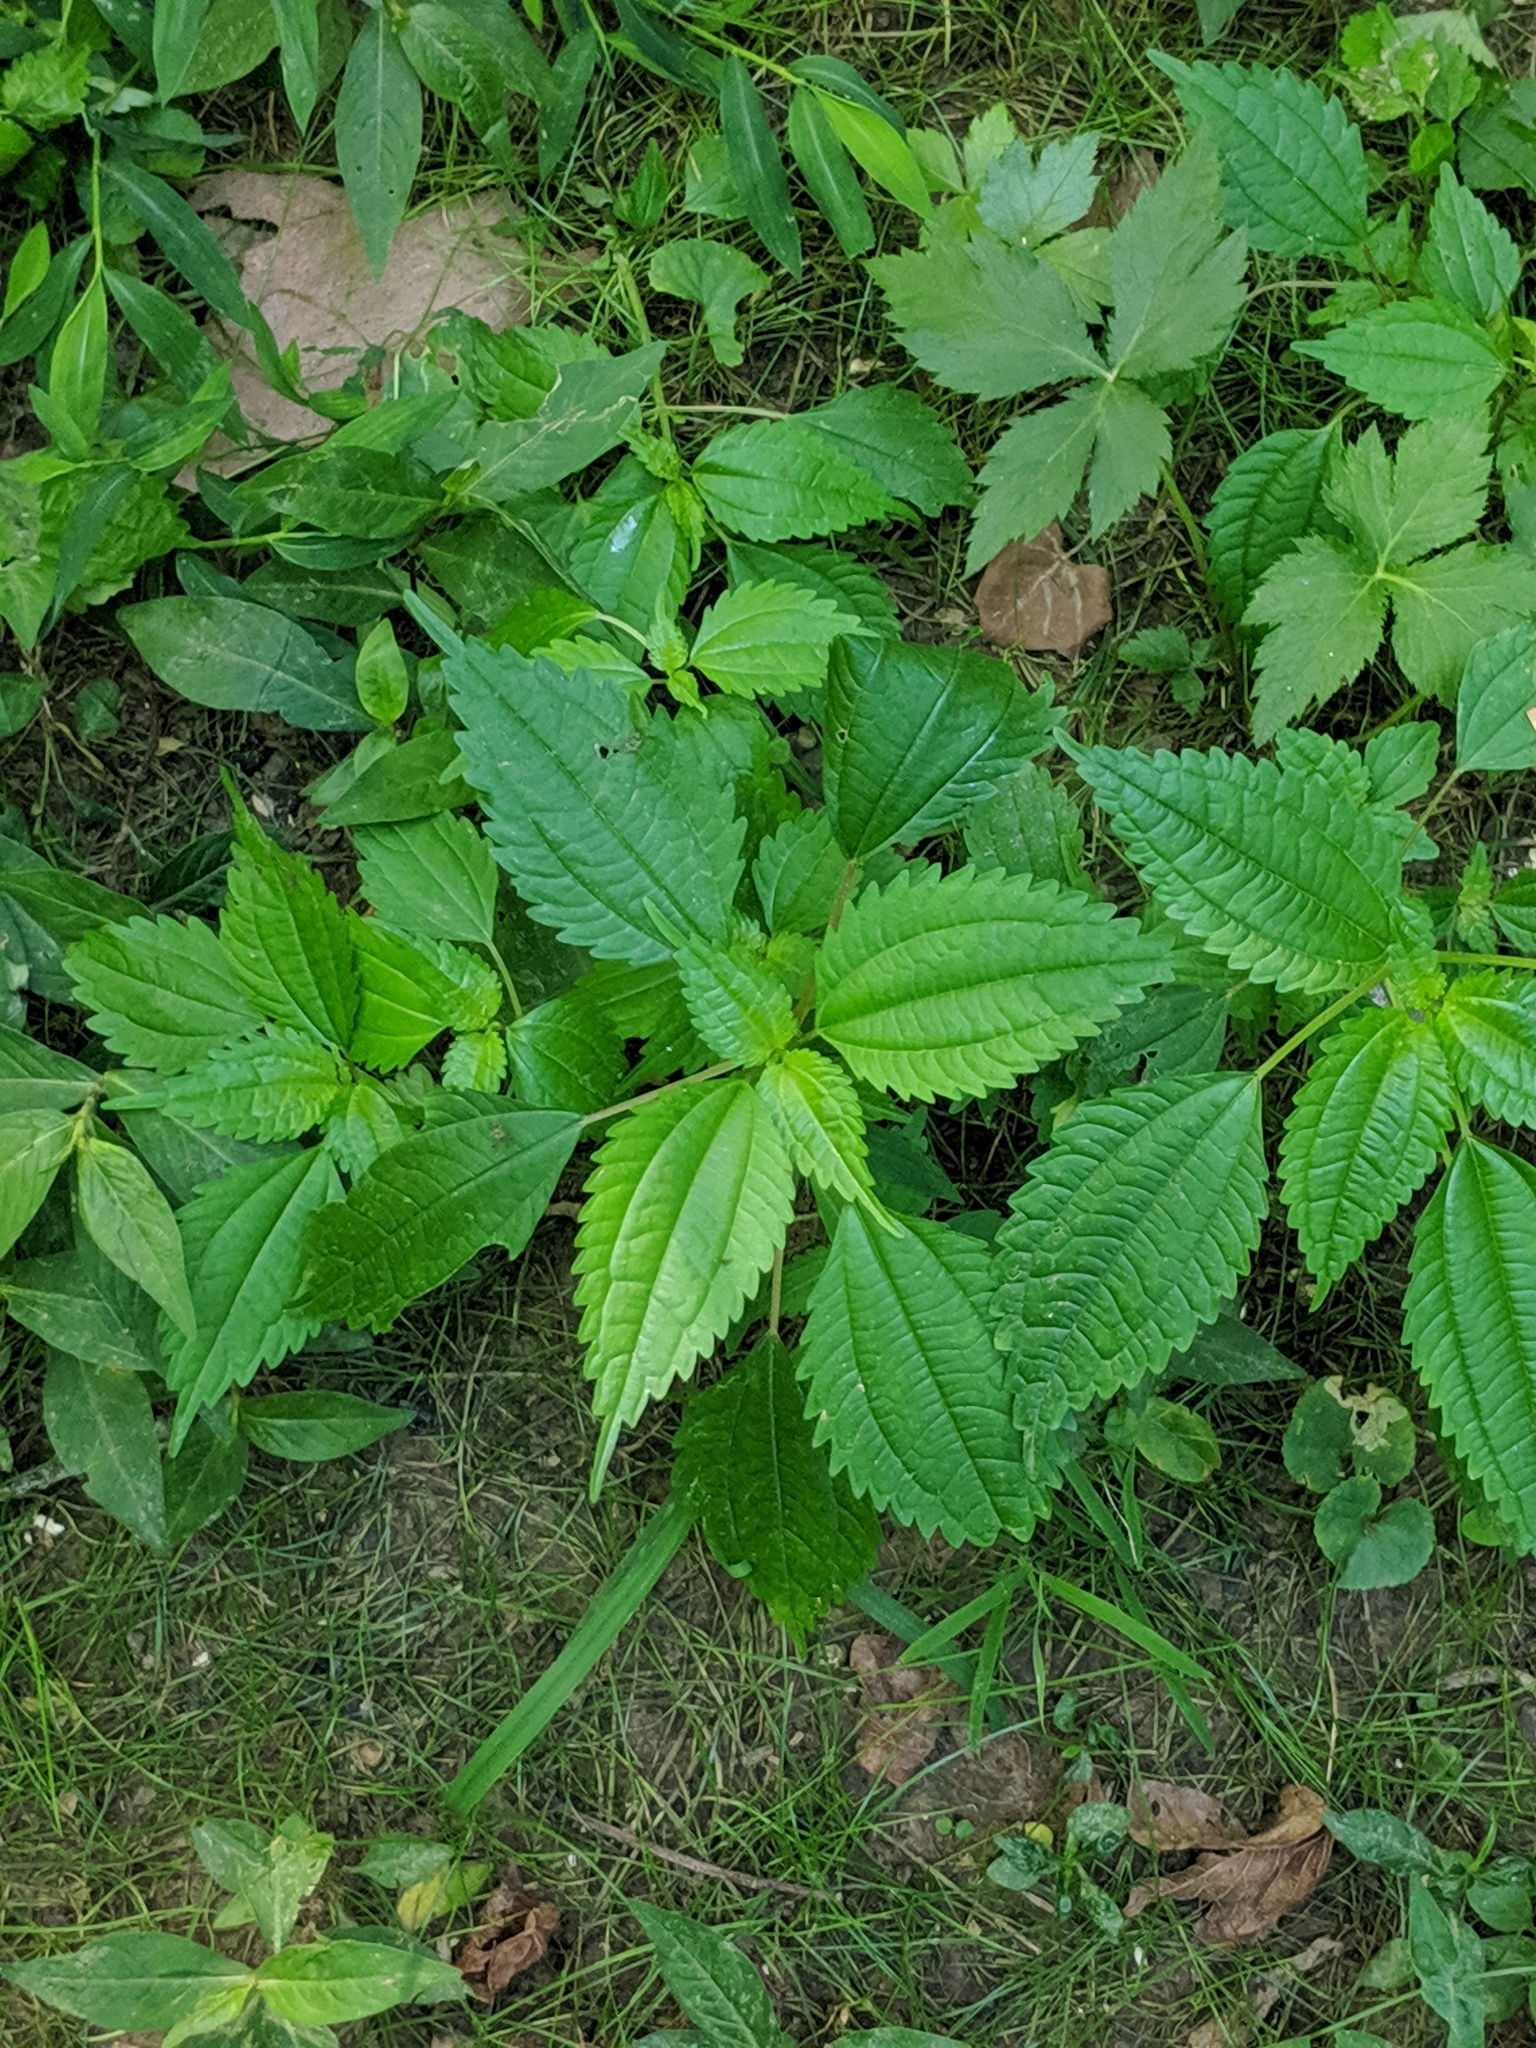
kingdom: Plantae
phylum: Tracheophyta
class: Magnoliopsida
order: Rosales
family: Urticaceae
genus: Pilea
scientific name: Pilea pumila
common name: Clearweed
